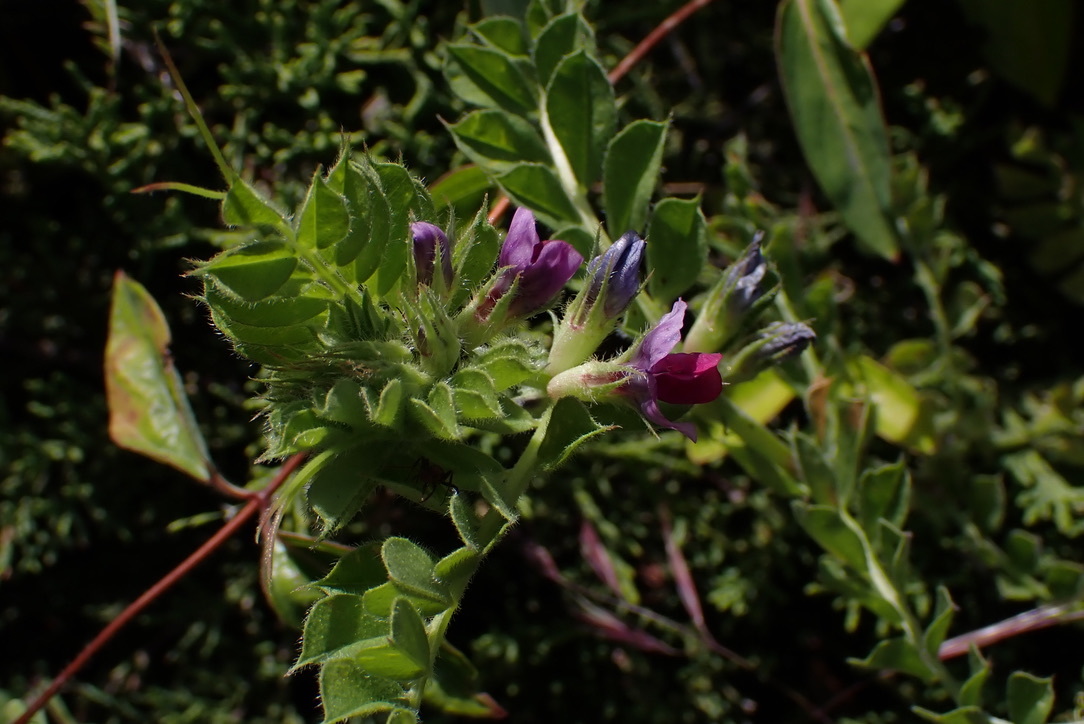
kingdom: Plantae
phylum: Tracheophyta
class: Magnoliopsida
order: Fabales
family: Fabaceae
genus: Vicia
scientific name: Vicia sativa
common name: Garden vetch
